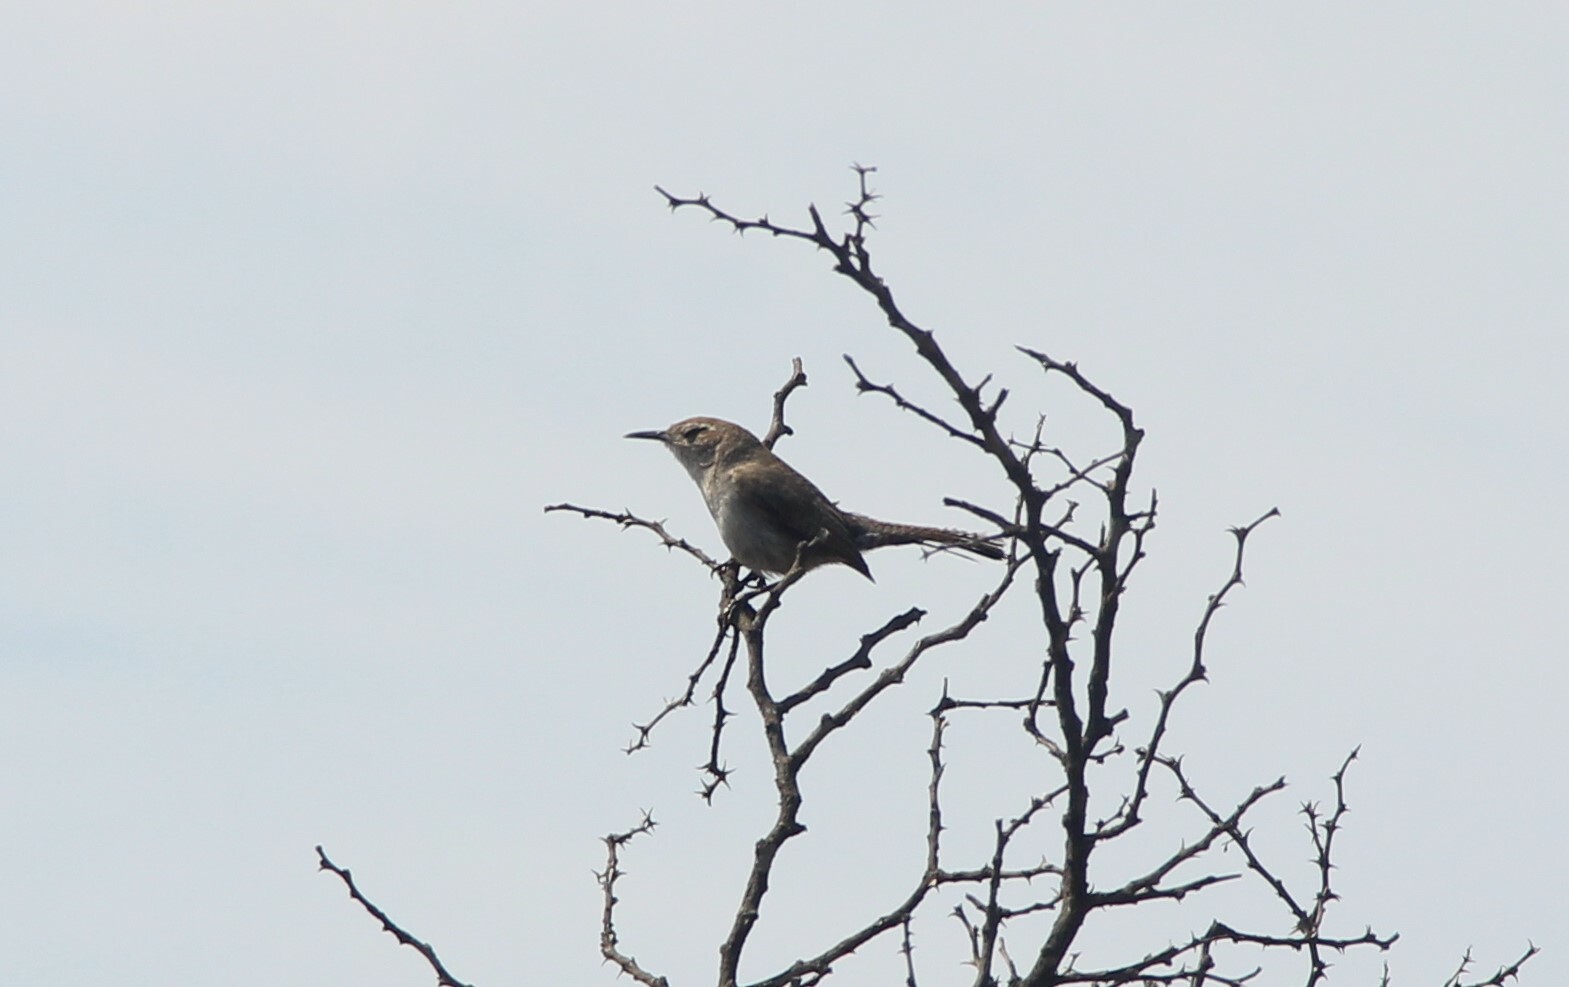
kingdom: Animalia
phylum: Chordata
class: Aves
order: Passeriformes
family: Troglodytidae
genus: Thryomanes
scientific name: Thryomanes bewickii
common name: Bewick's wren
